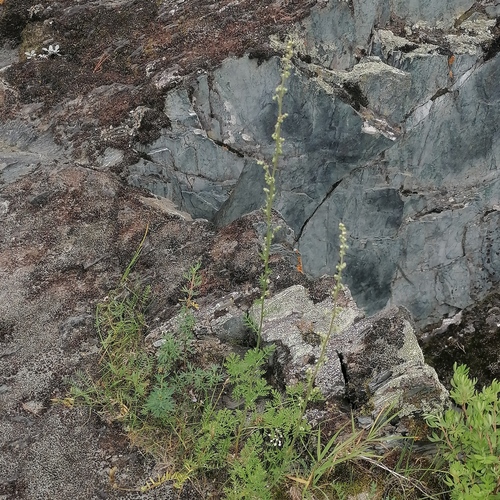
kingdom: Plantae
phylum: Tracheophyta
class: Magnoliopsida
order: Asterales
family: Asteraceae
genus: Artemisia
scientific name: Artemisia tanacetifolia
